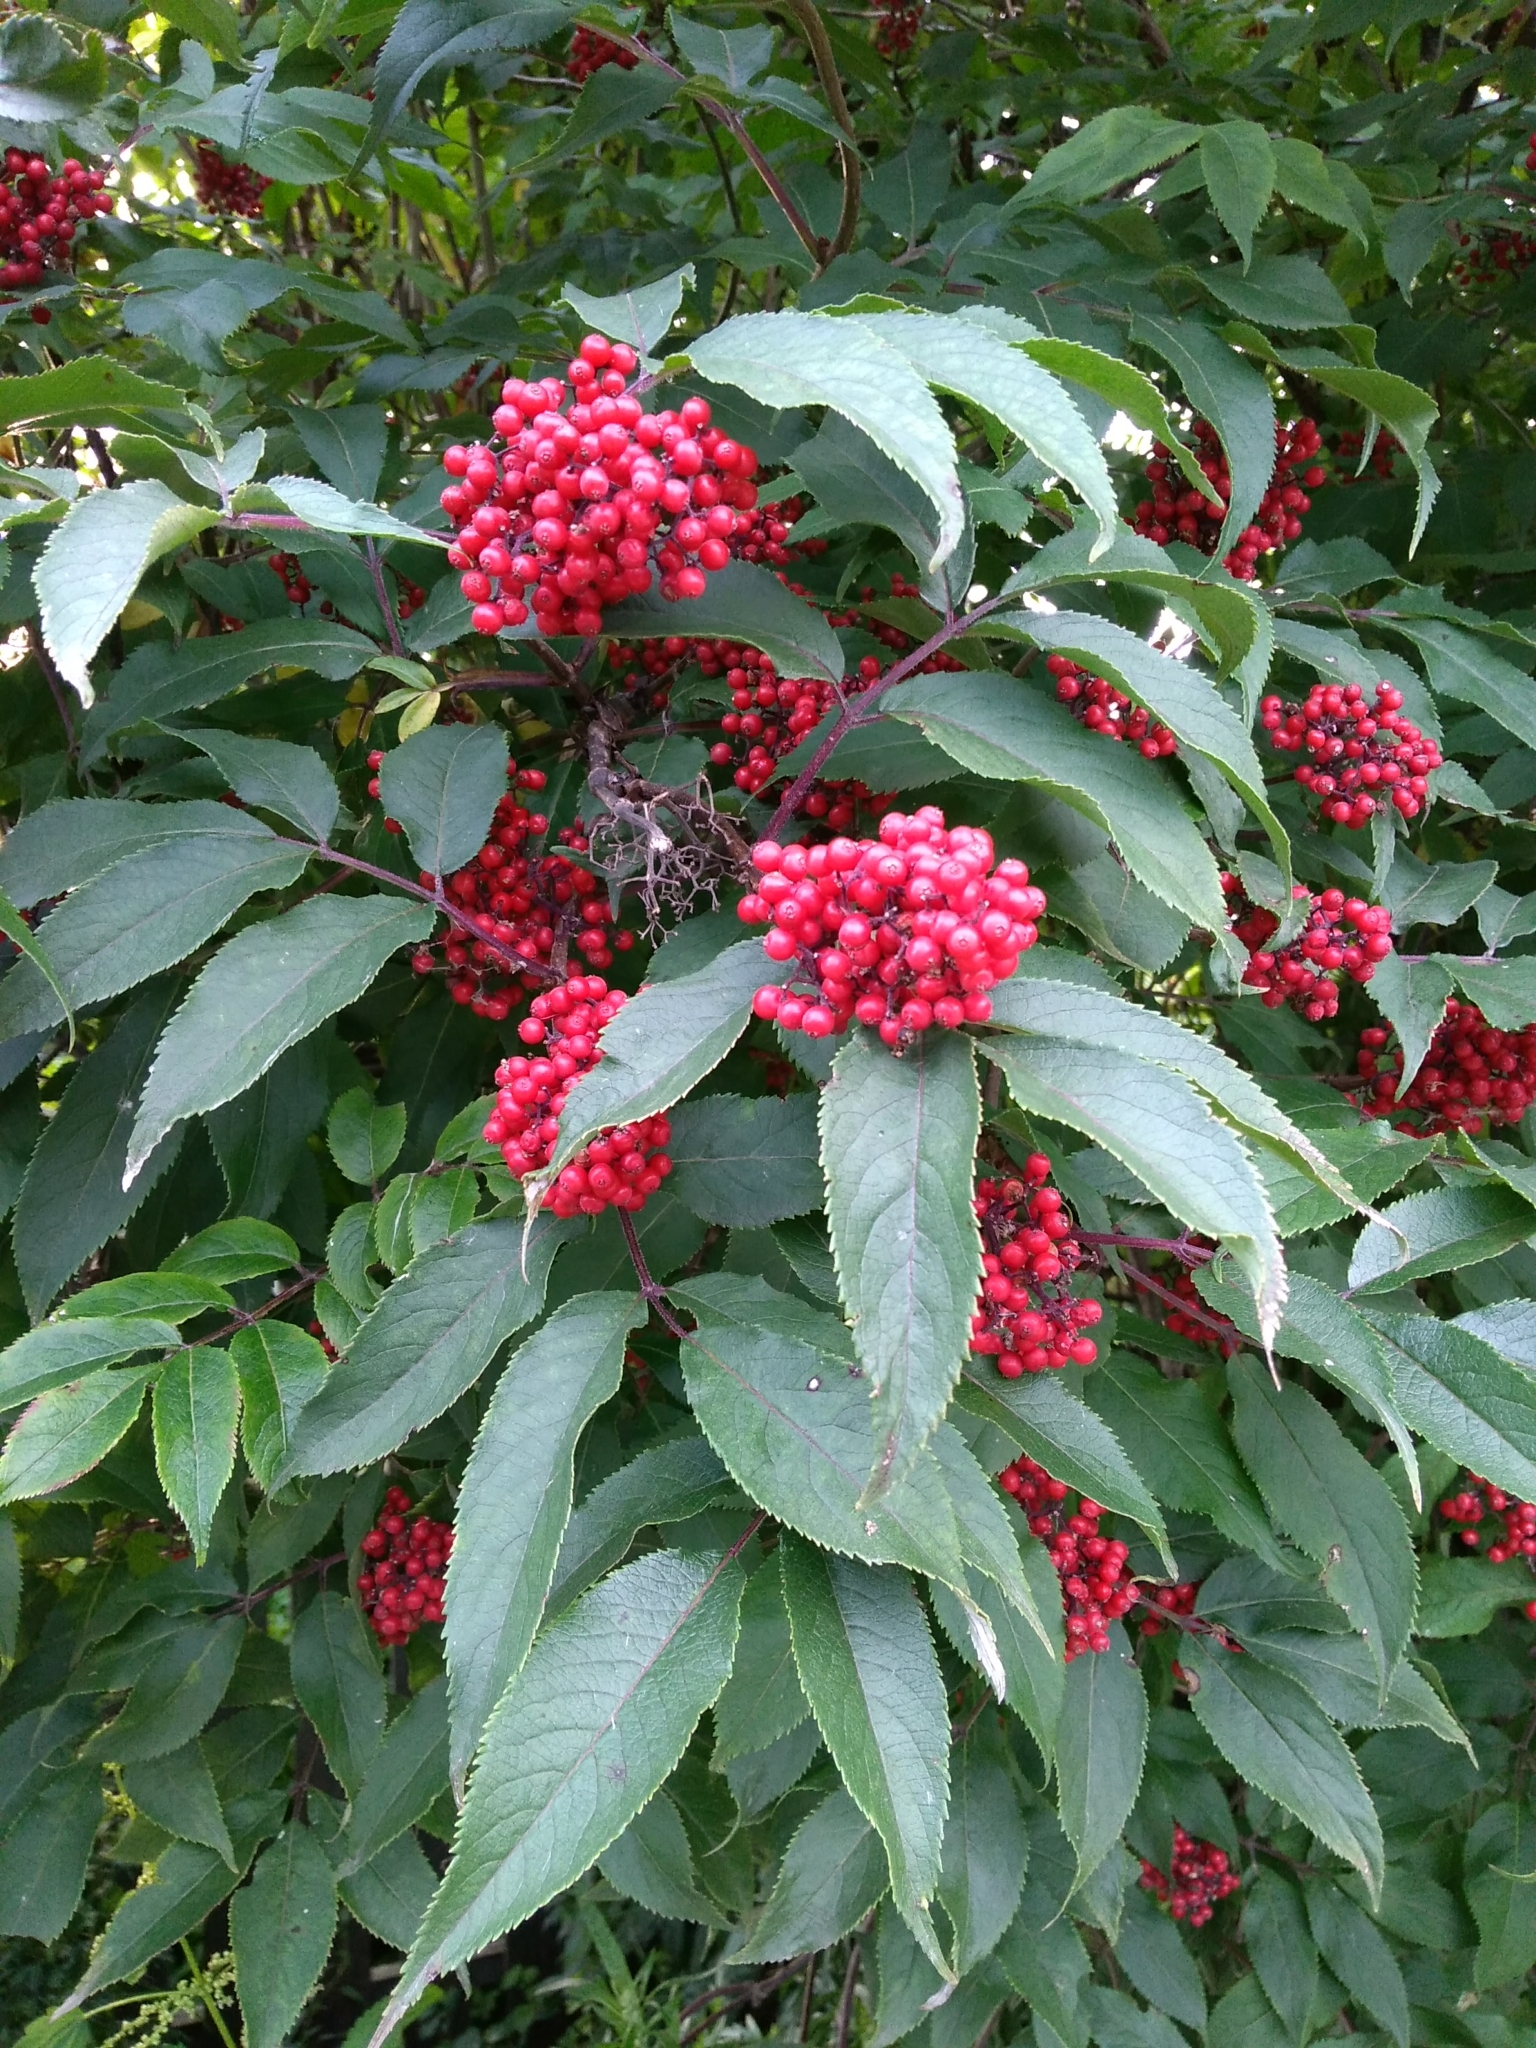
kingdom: Plantae
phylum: Tracheophyta
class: Magnoliopsida
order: Dipsacales
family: Viburnaceae
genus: Sambucus
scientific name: Sambucus racemosa
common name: Red-berried elder
